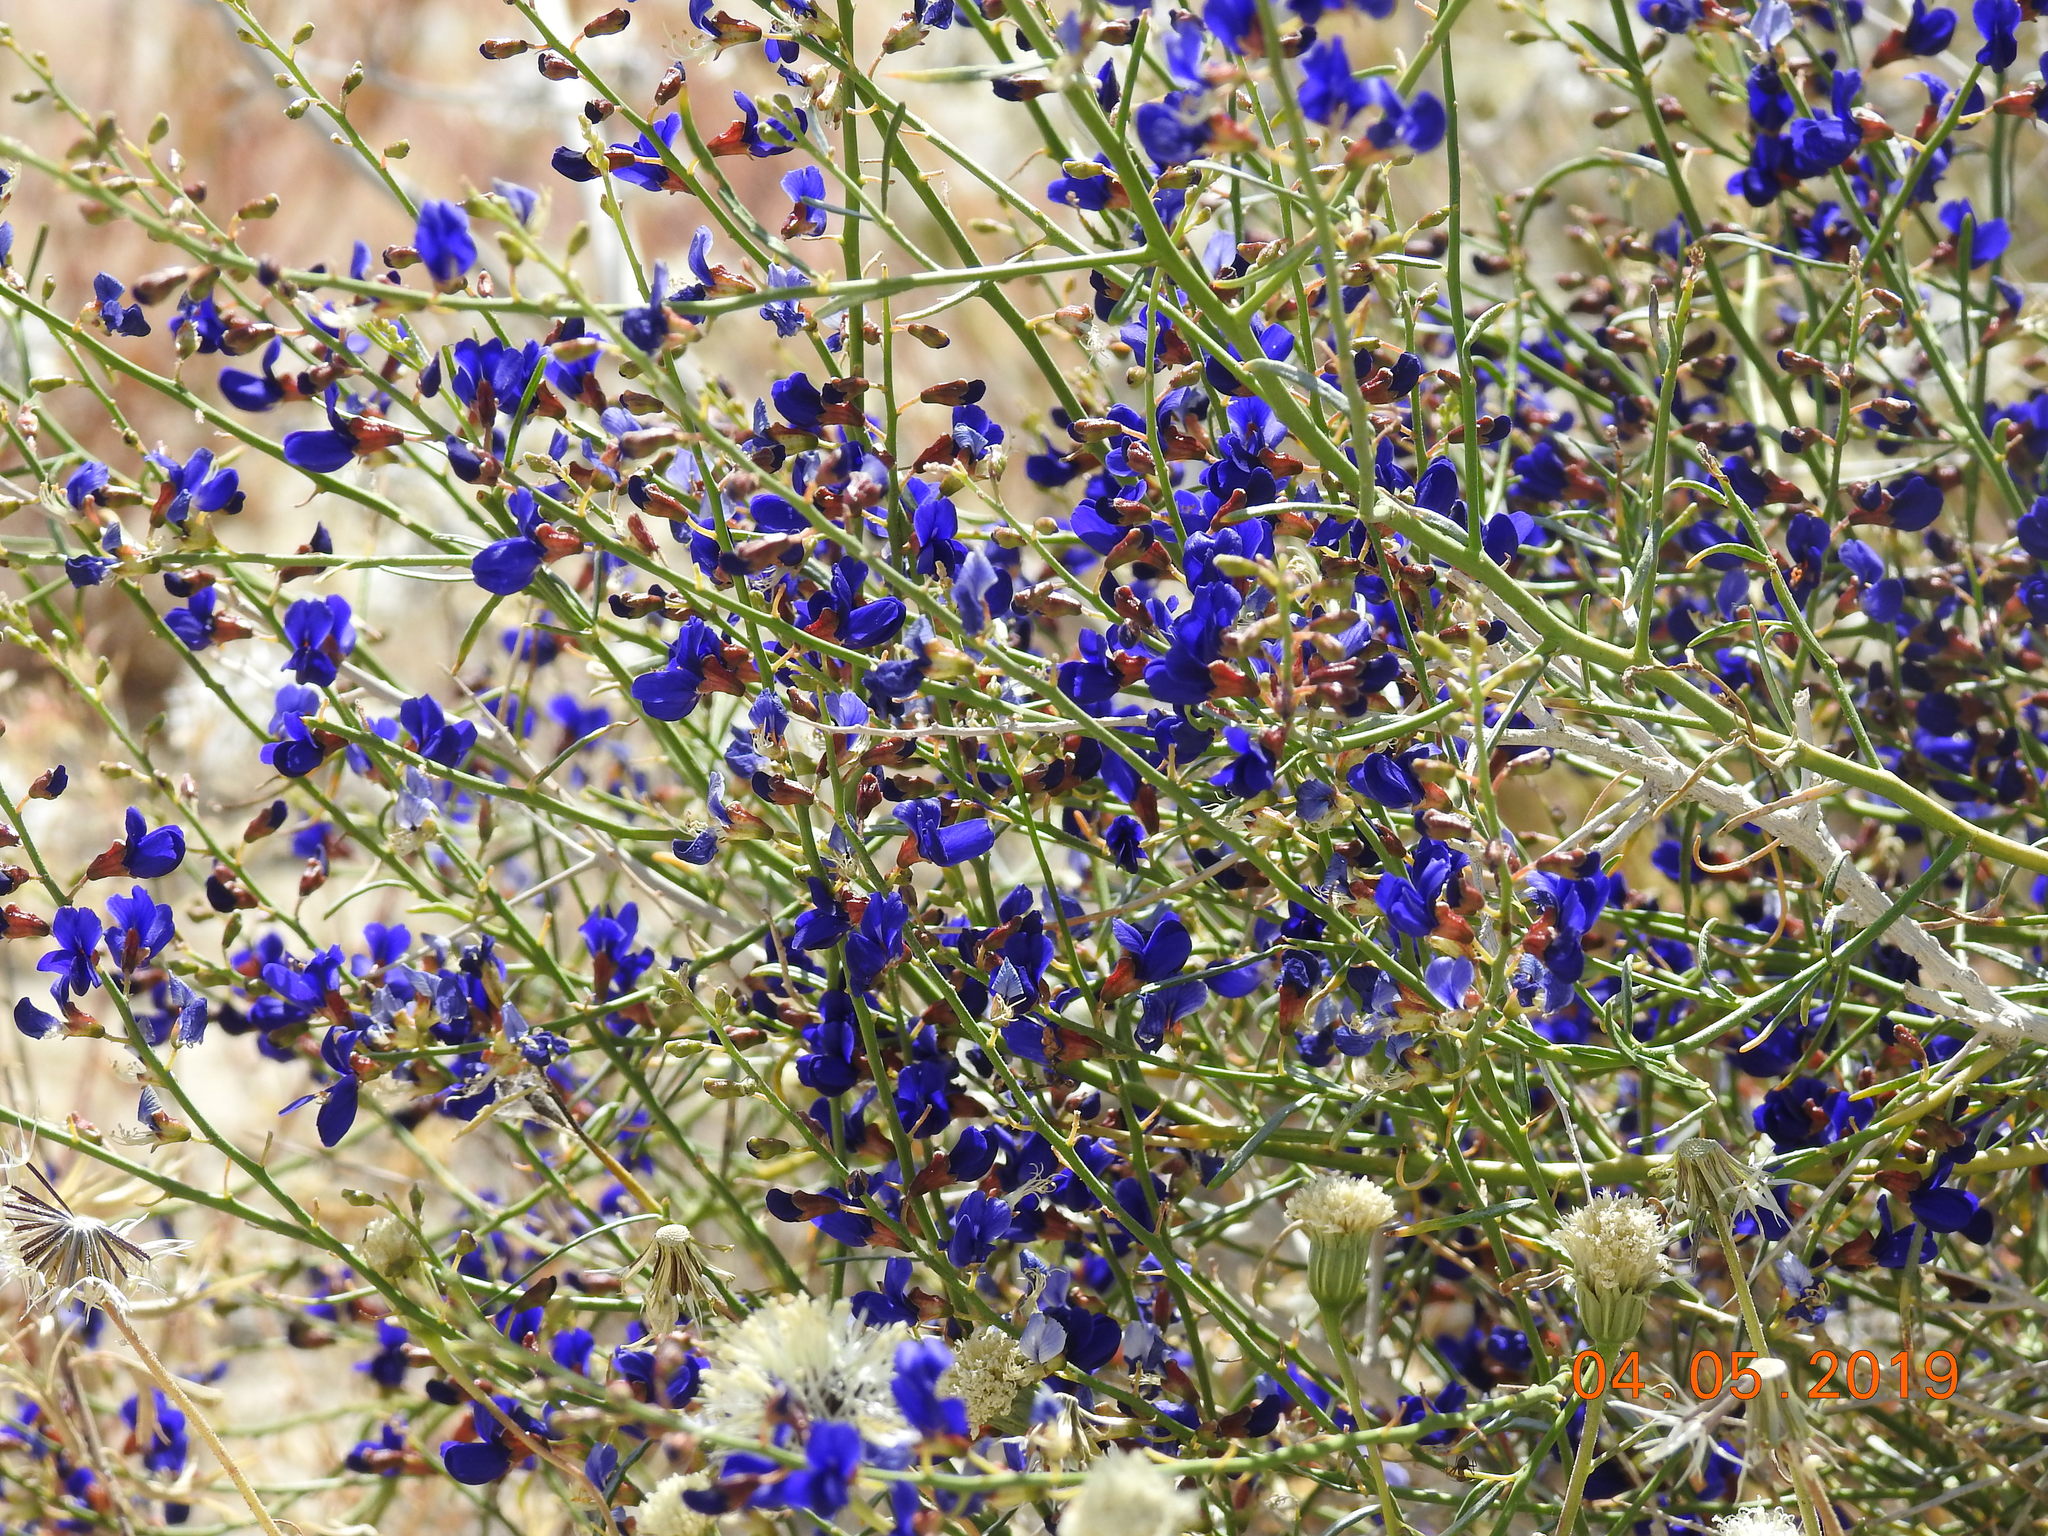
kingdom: Plantae
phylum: Tracheophyta
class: Magnoliopsida
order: Fabales
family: Fabaceae
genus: Psorothamnus
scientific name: Psorothamnus schottii
